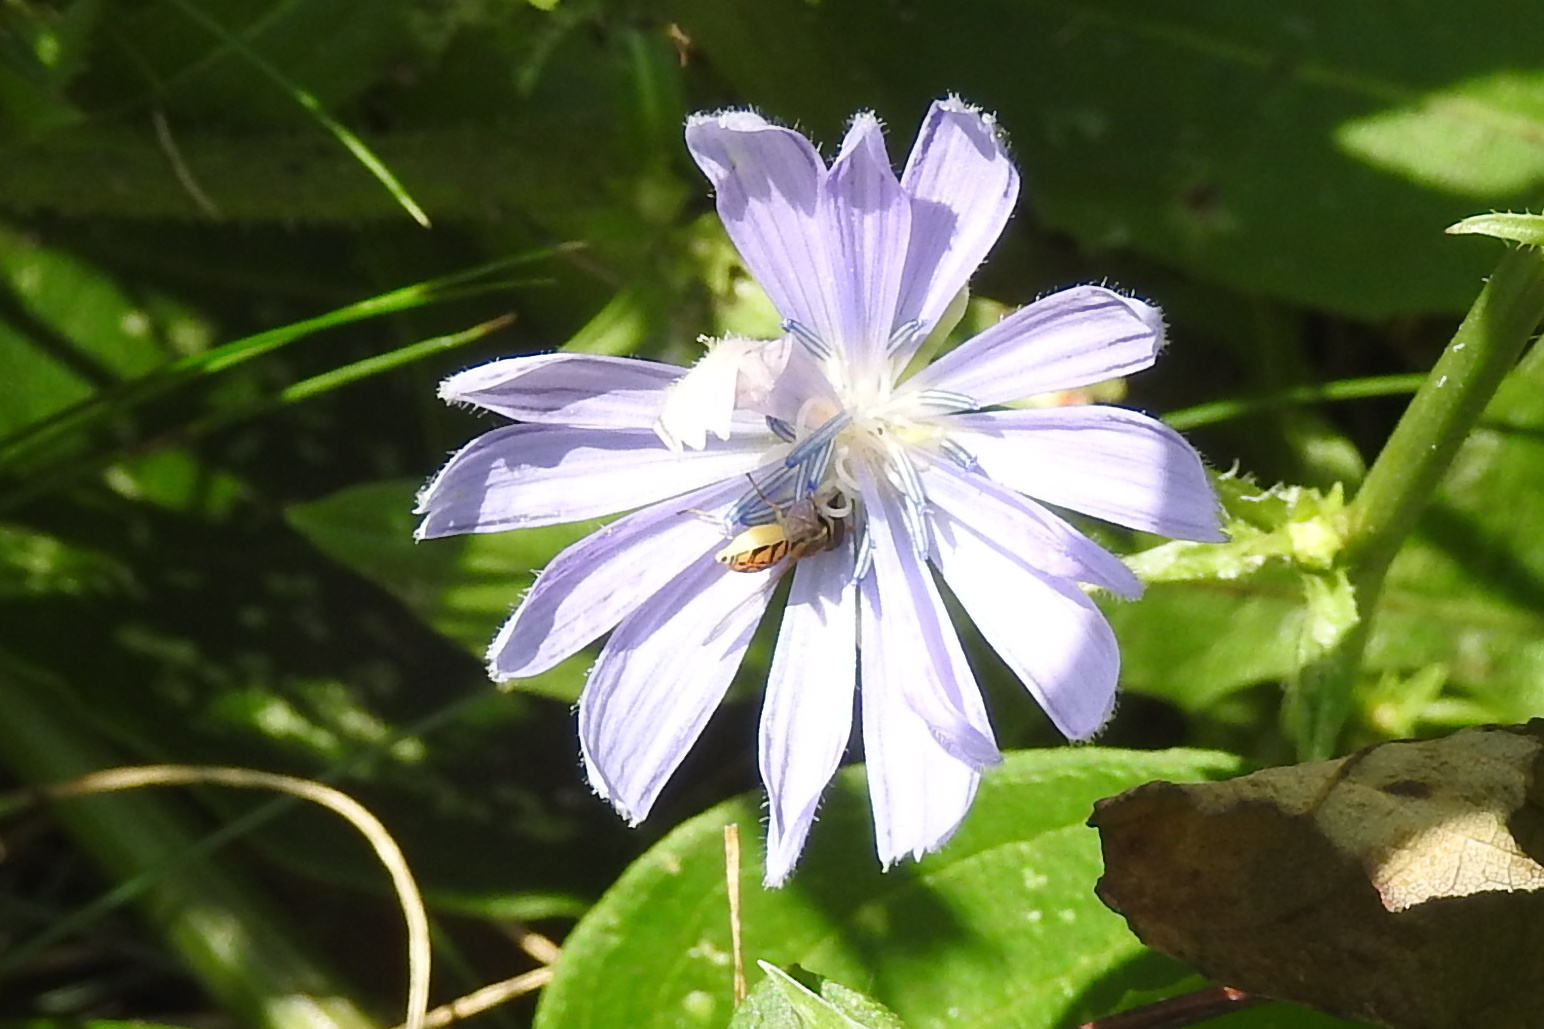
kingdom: Plantae
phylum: Tracheophyta
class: Magnoliopsida
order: Asterales
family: Asteraceae
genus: Cichorium
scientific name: Cichorium intybus
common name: Chicory
